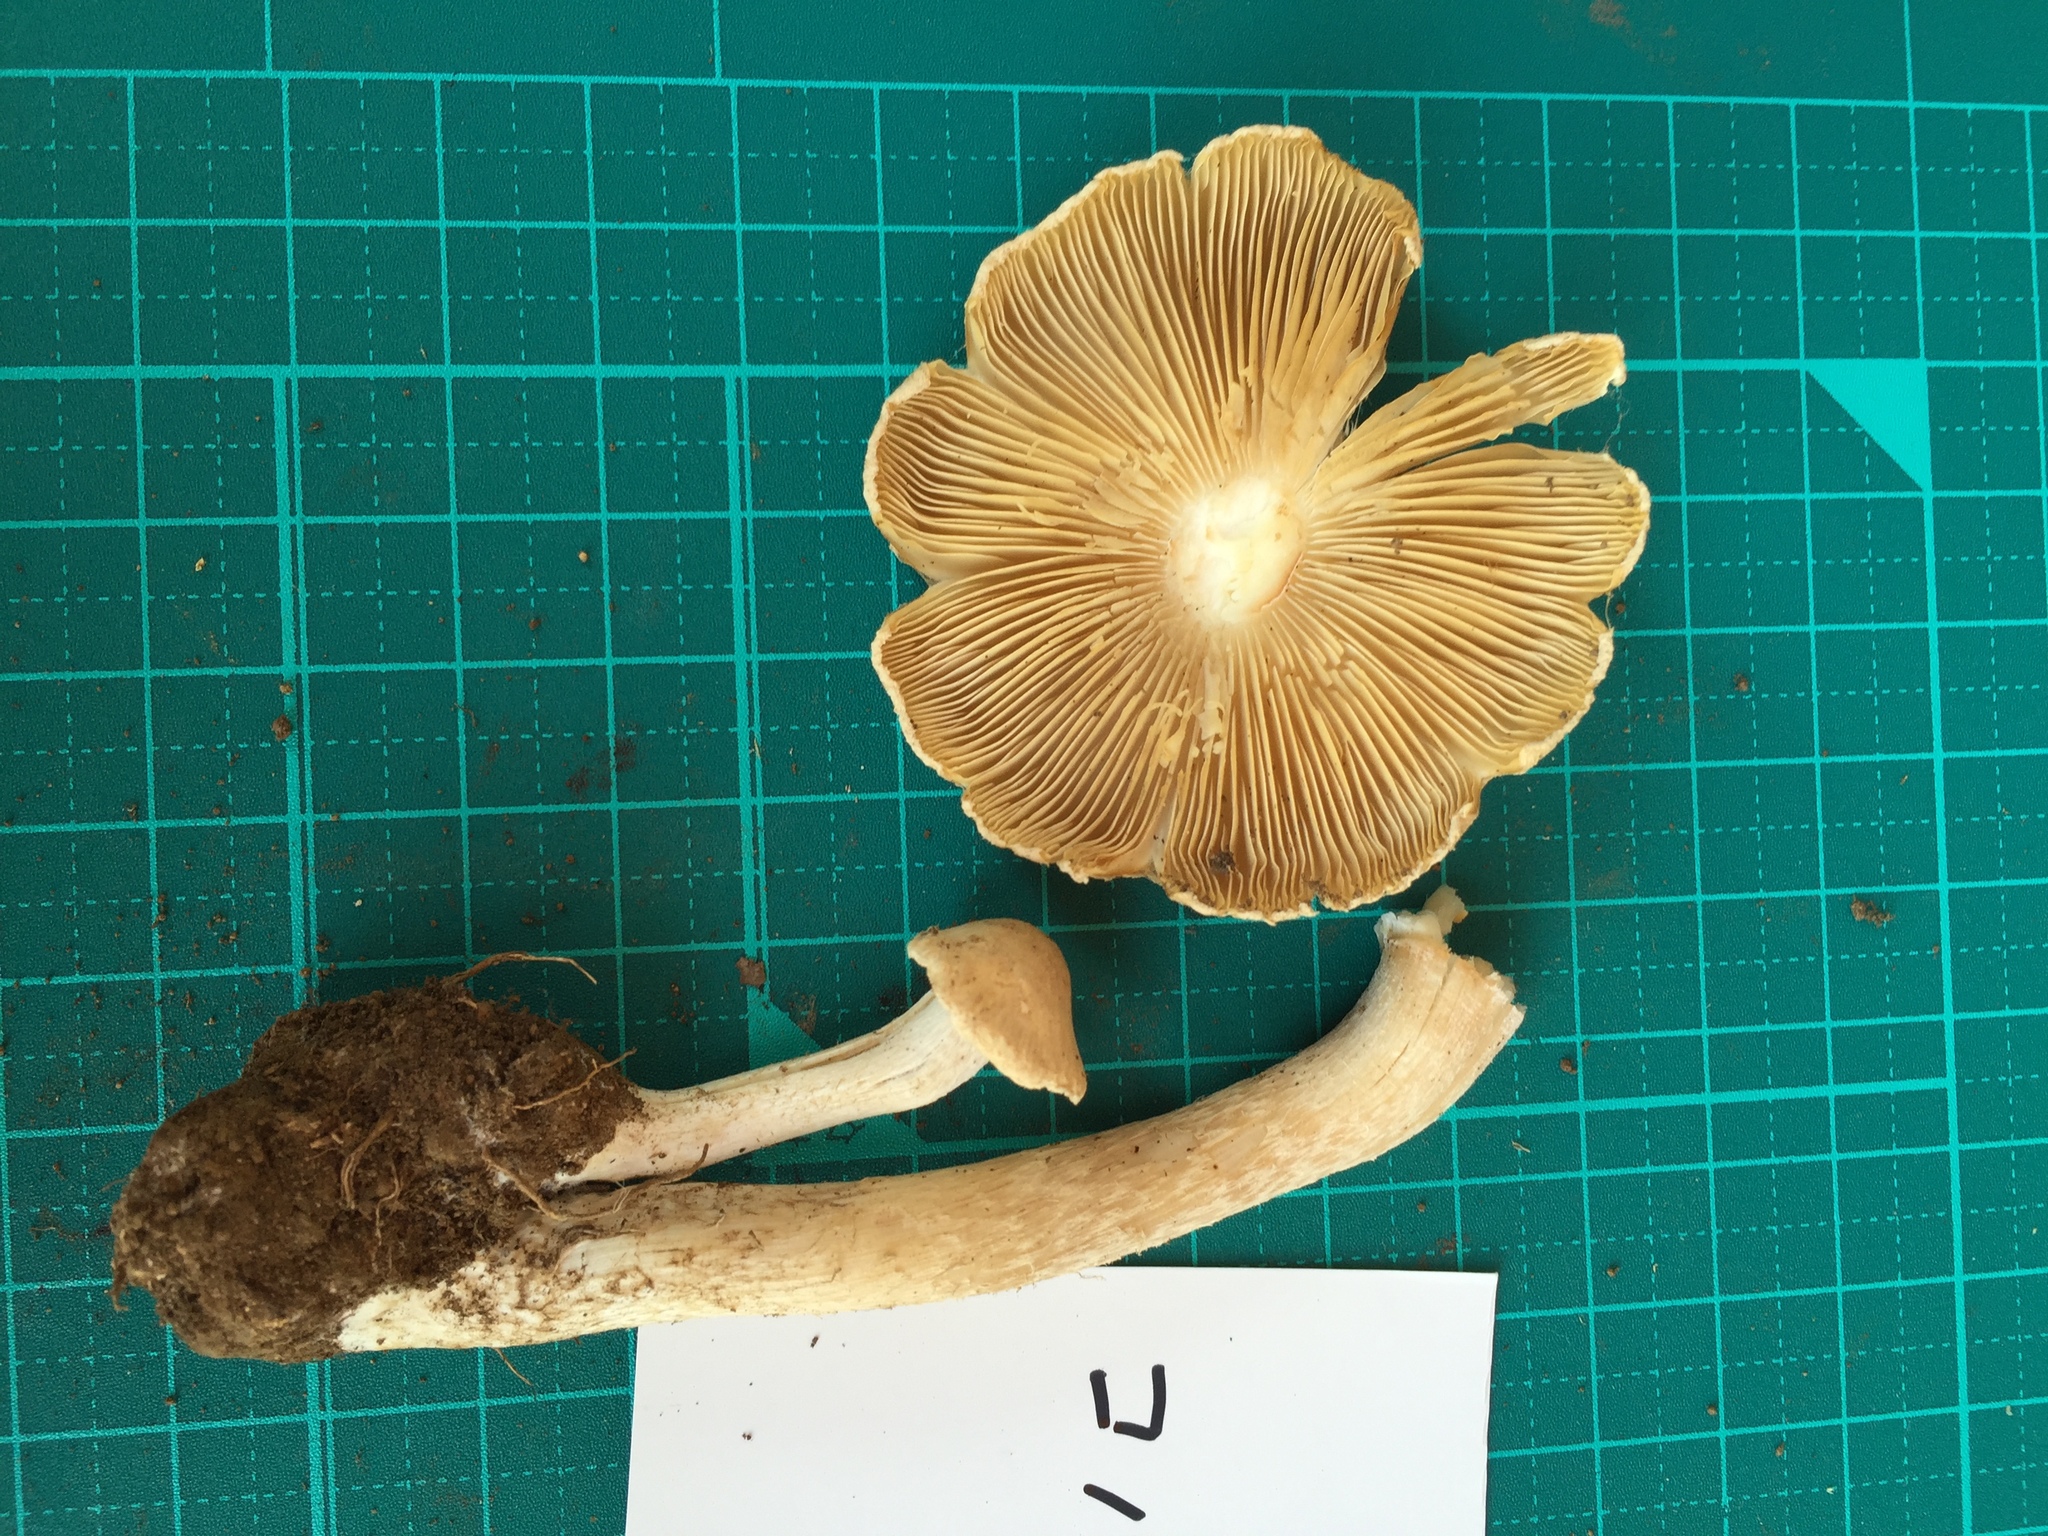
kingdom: Fungi
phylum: Basidiomycota
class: Agaricomycetes
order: Agaricales
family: Inocybaceae
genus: Inocybe
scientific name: Inocybe kobayasii
